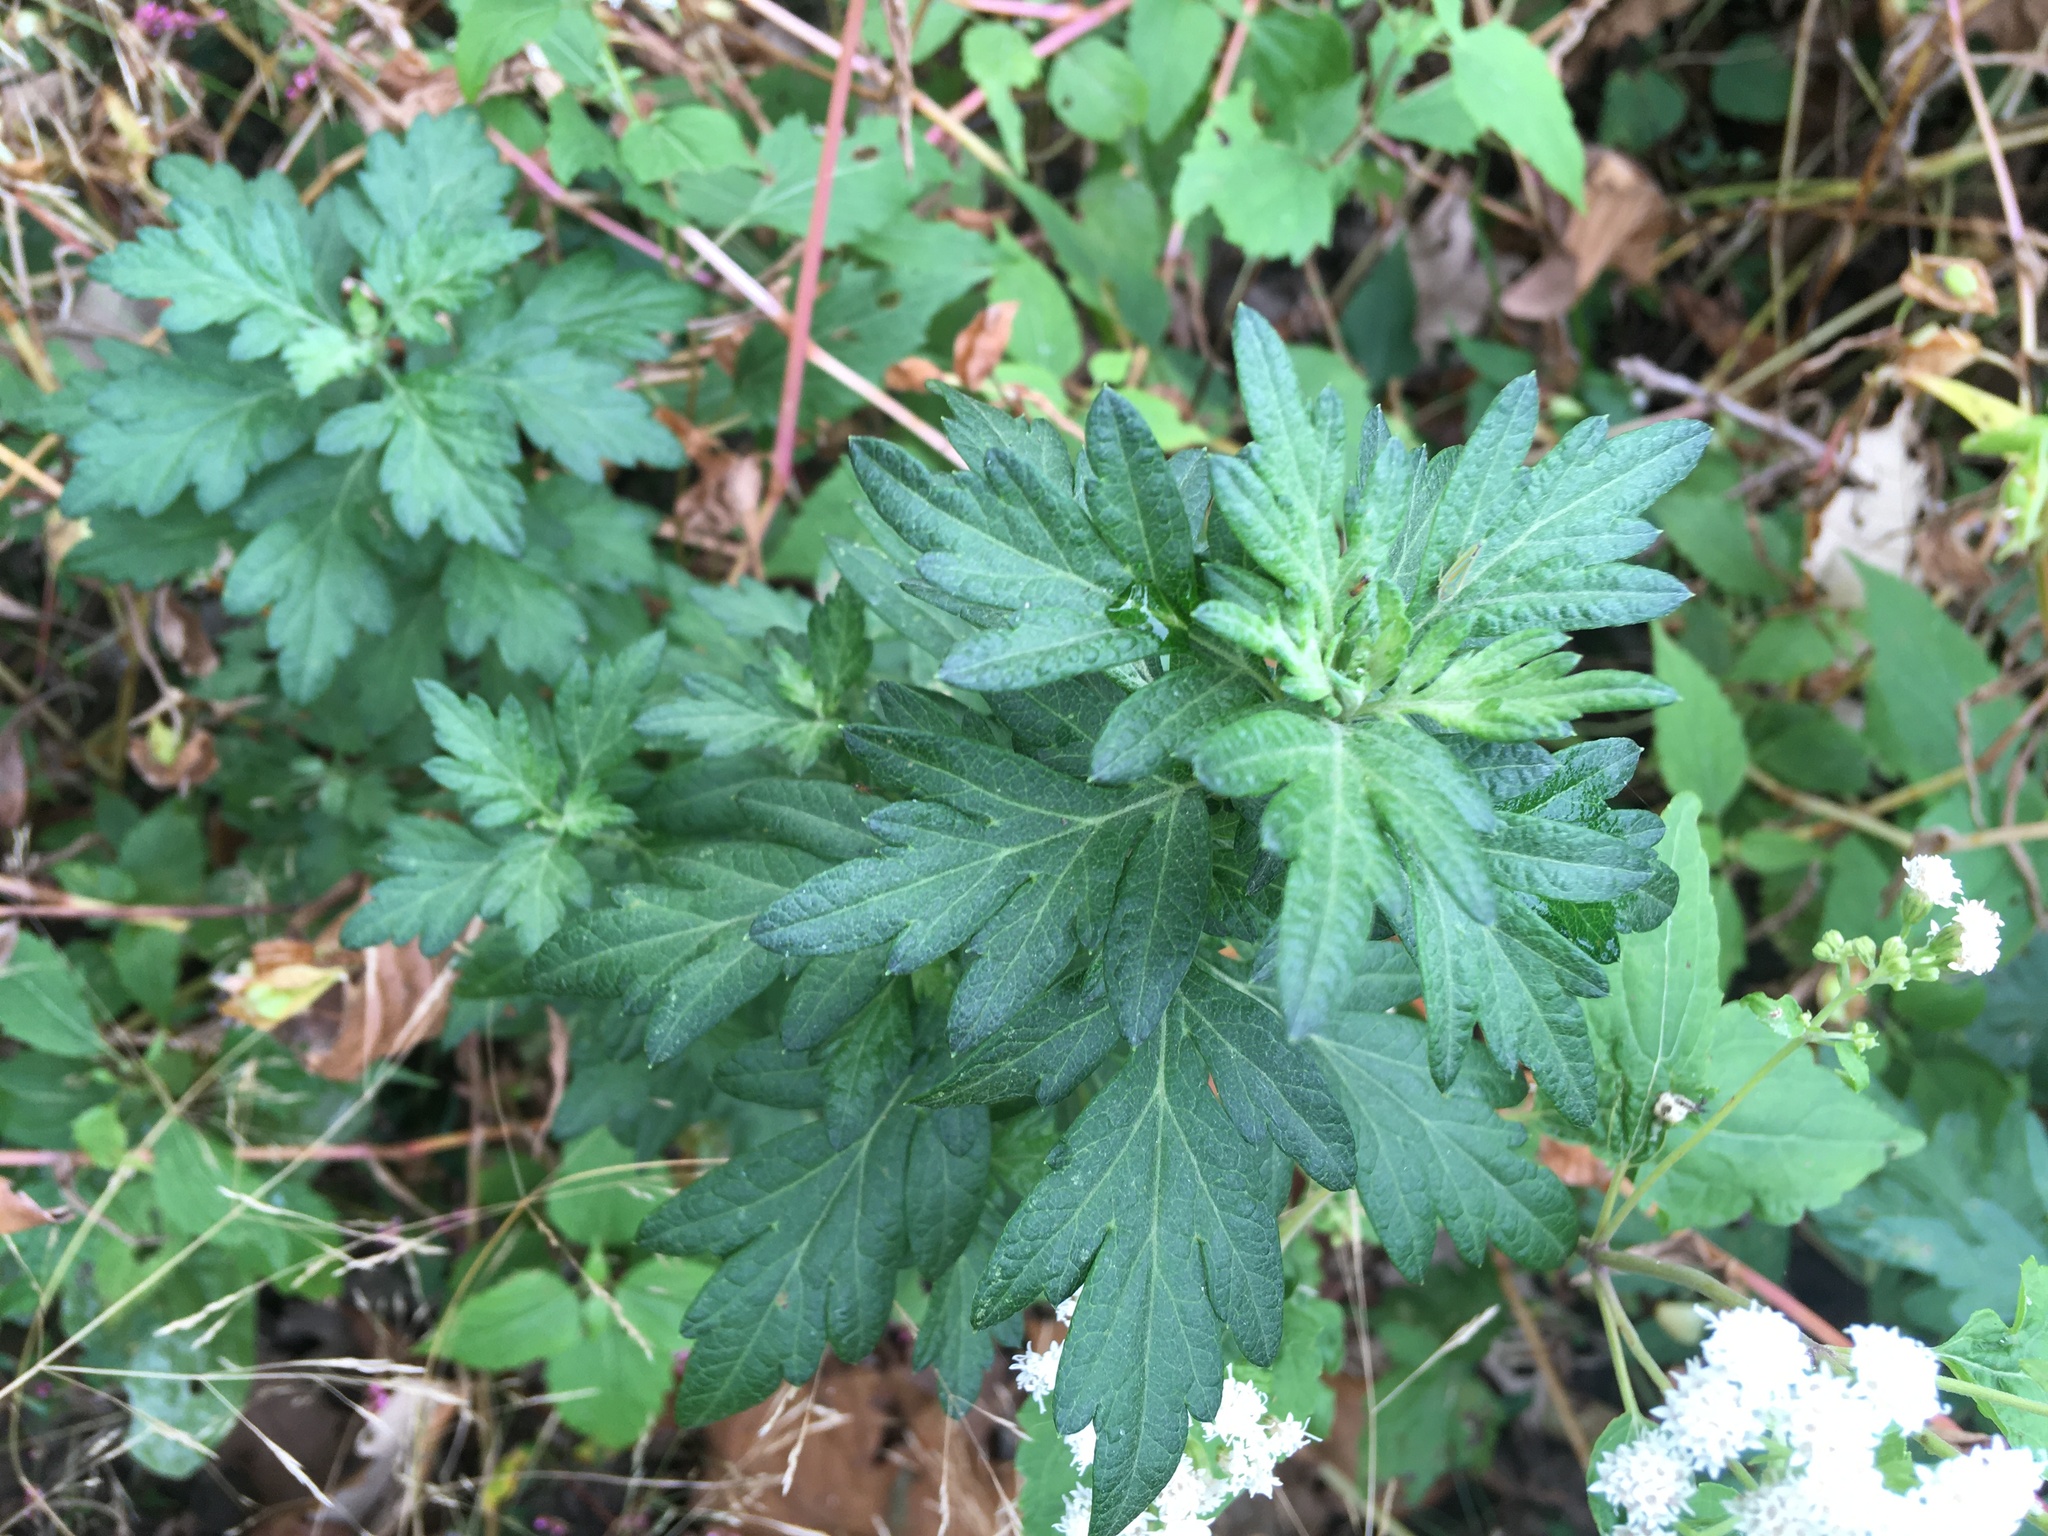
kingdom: Plantae
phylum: Tracheophyta
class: Magnoliopsida
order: Asterales
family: Asteraceae
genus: Artemisia
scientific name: Artemisia vulgaris
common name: Mugwort
